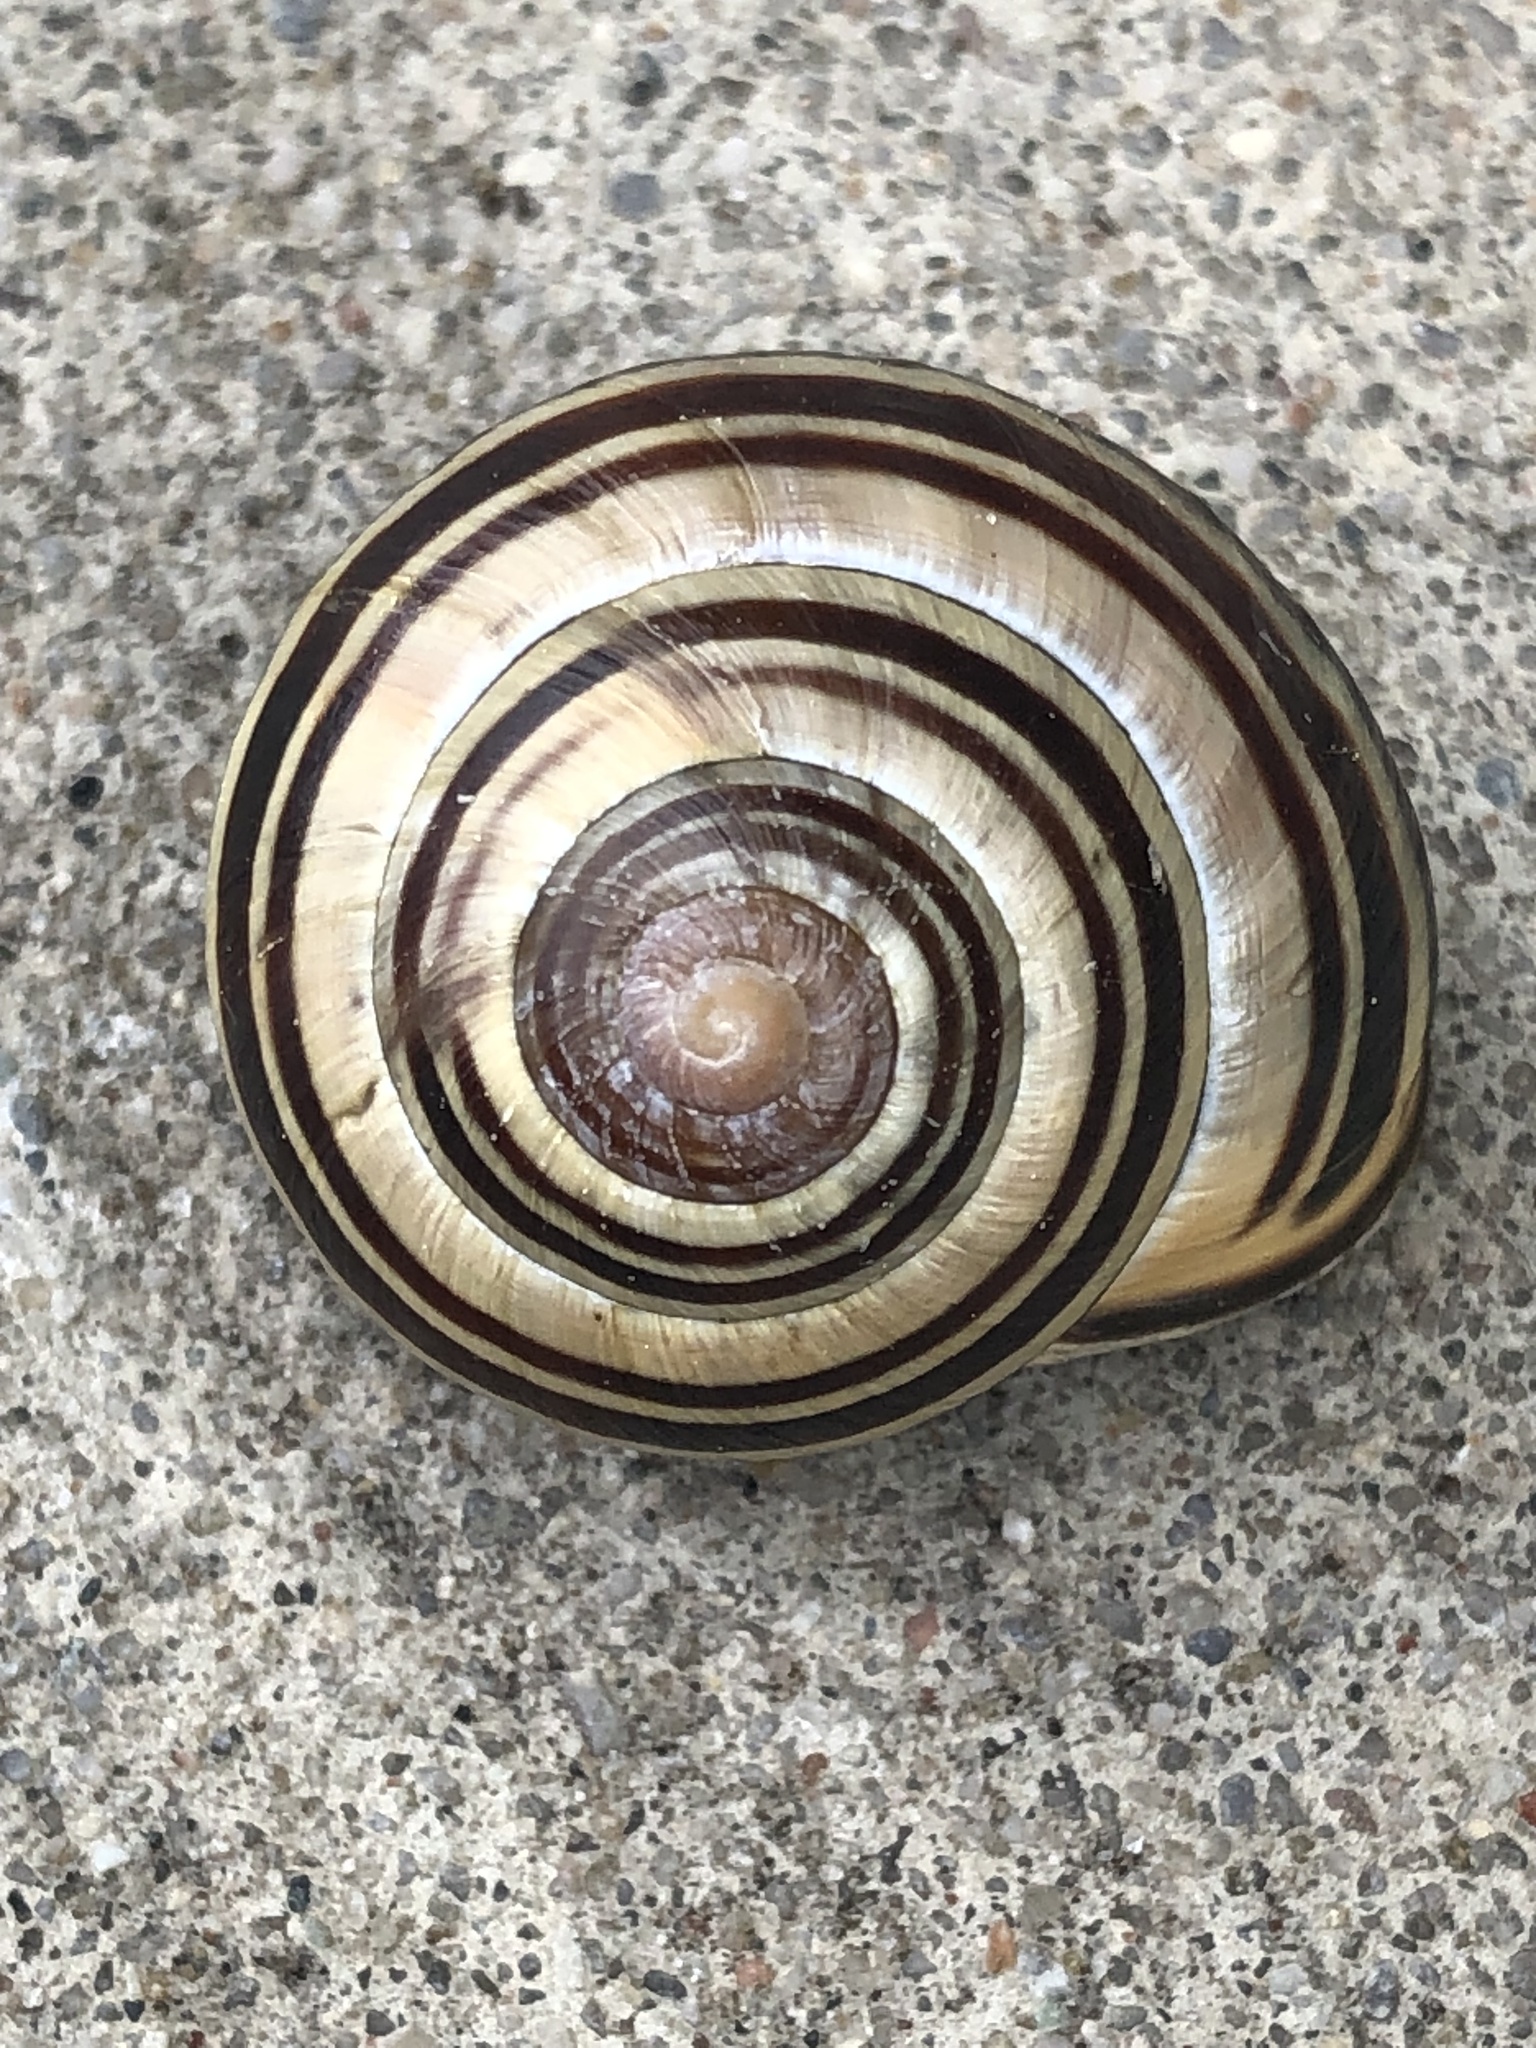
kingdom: Animalia
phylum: Mollusca
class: Gastropoda
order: Stylommatophora
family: Helicidae
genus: Cepaea
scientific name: Cepaea nemoralis
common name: Grovesnail
